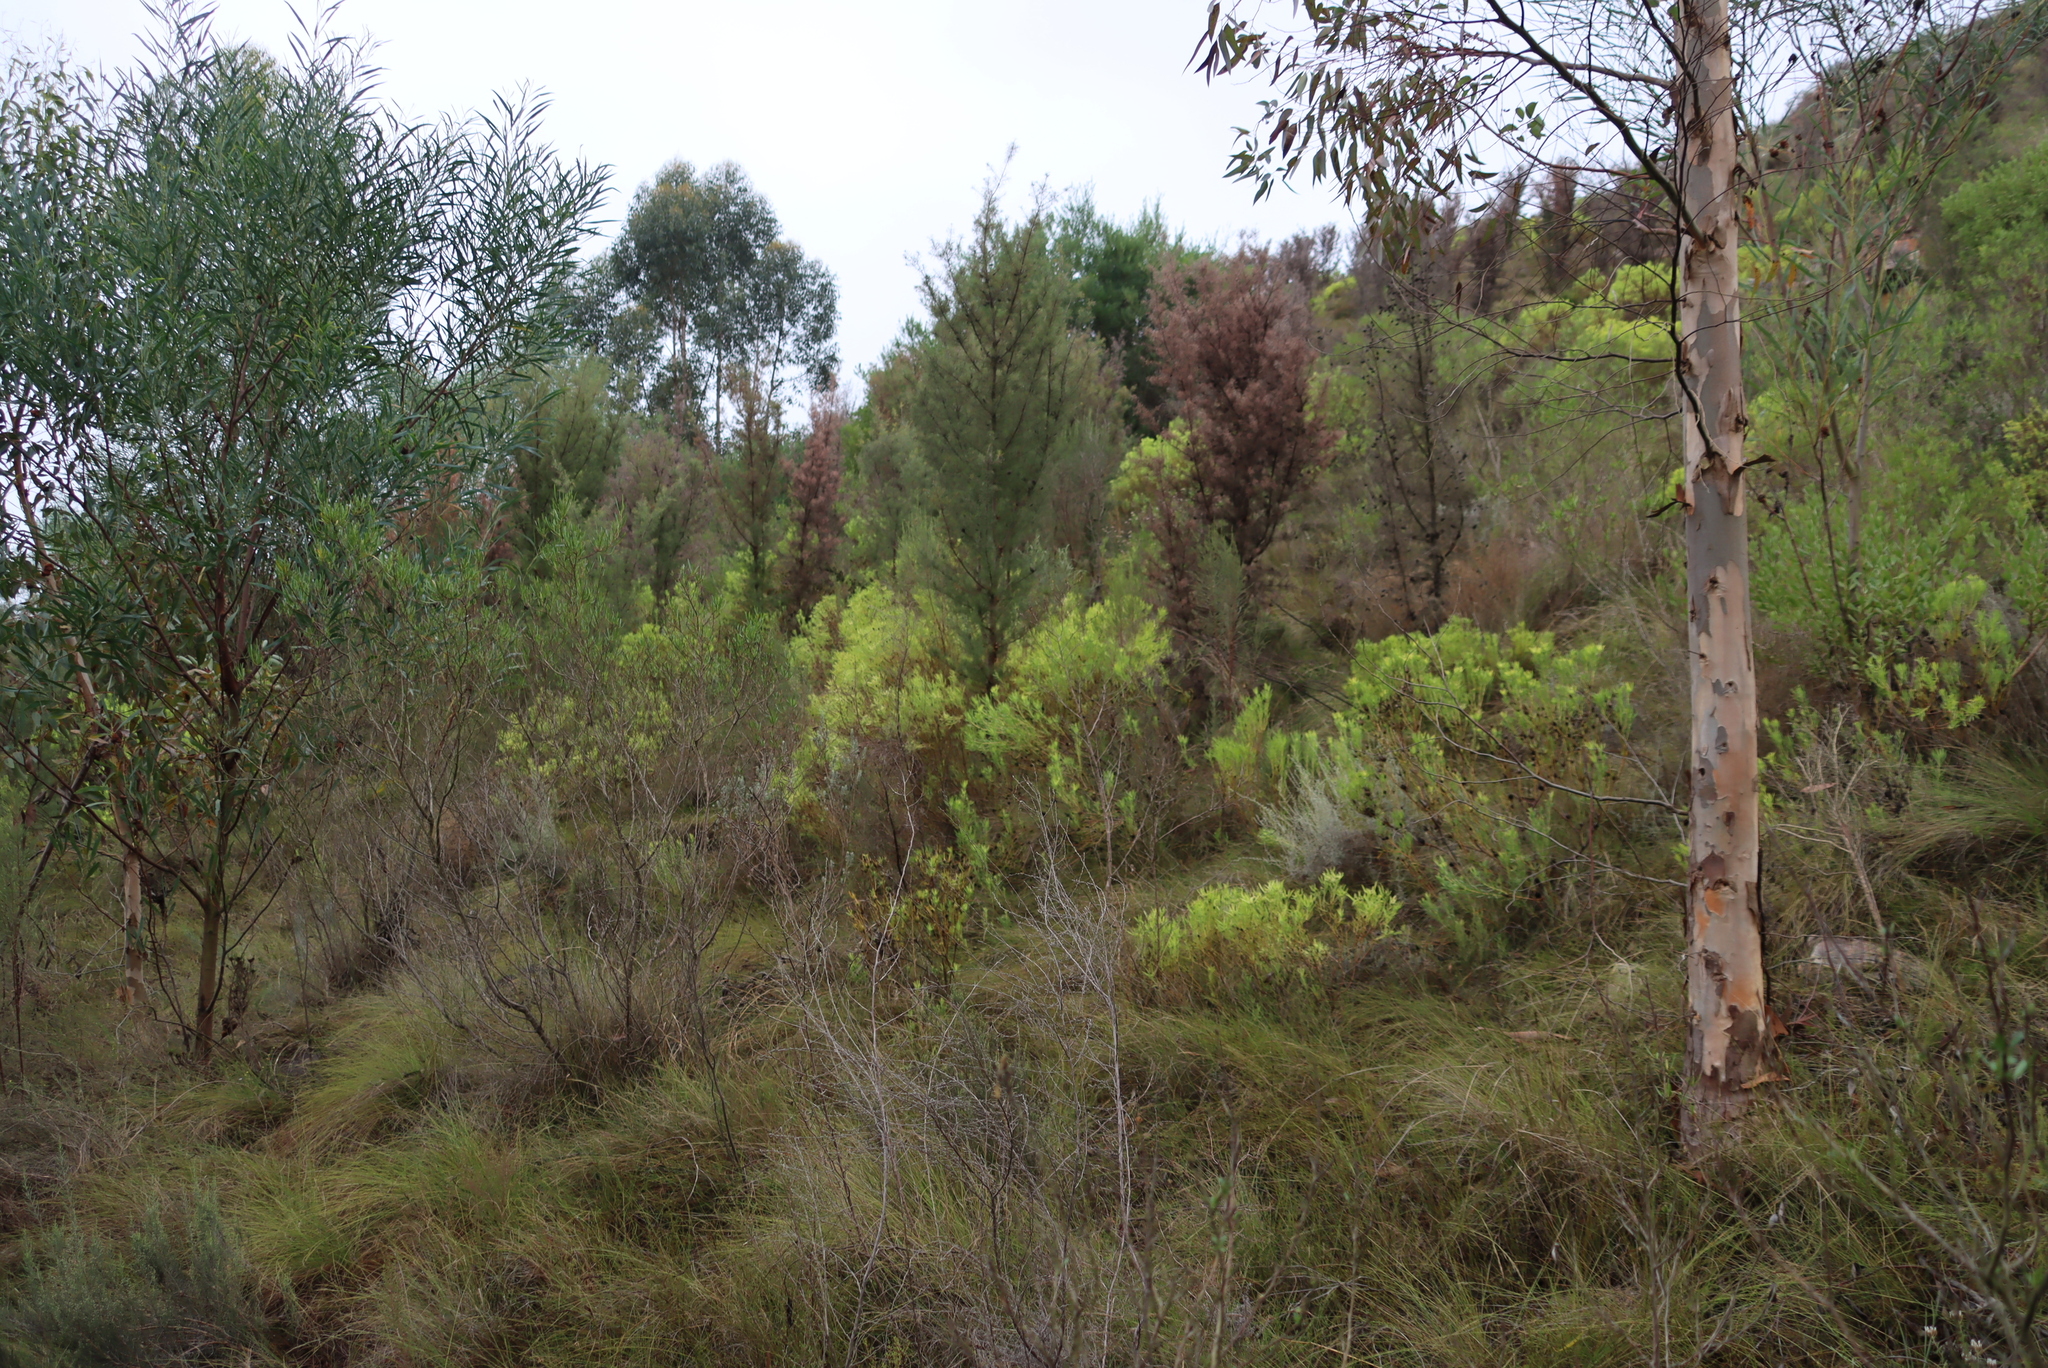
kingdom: Plantae
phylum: Tracheophyta
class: Magnoliopsida
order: Proteales
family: Proteaceae
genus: Hakea
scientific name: Hakea sericea
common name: Needle bush
